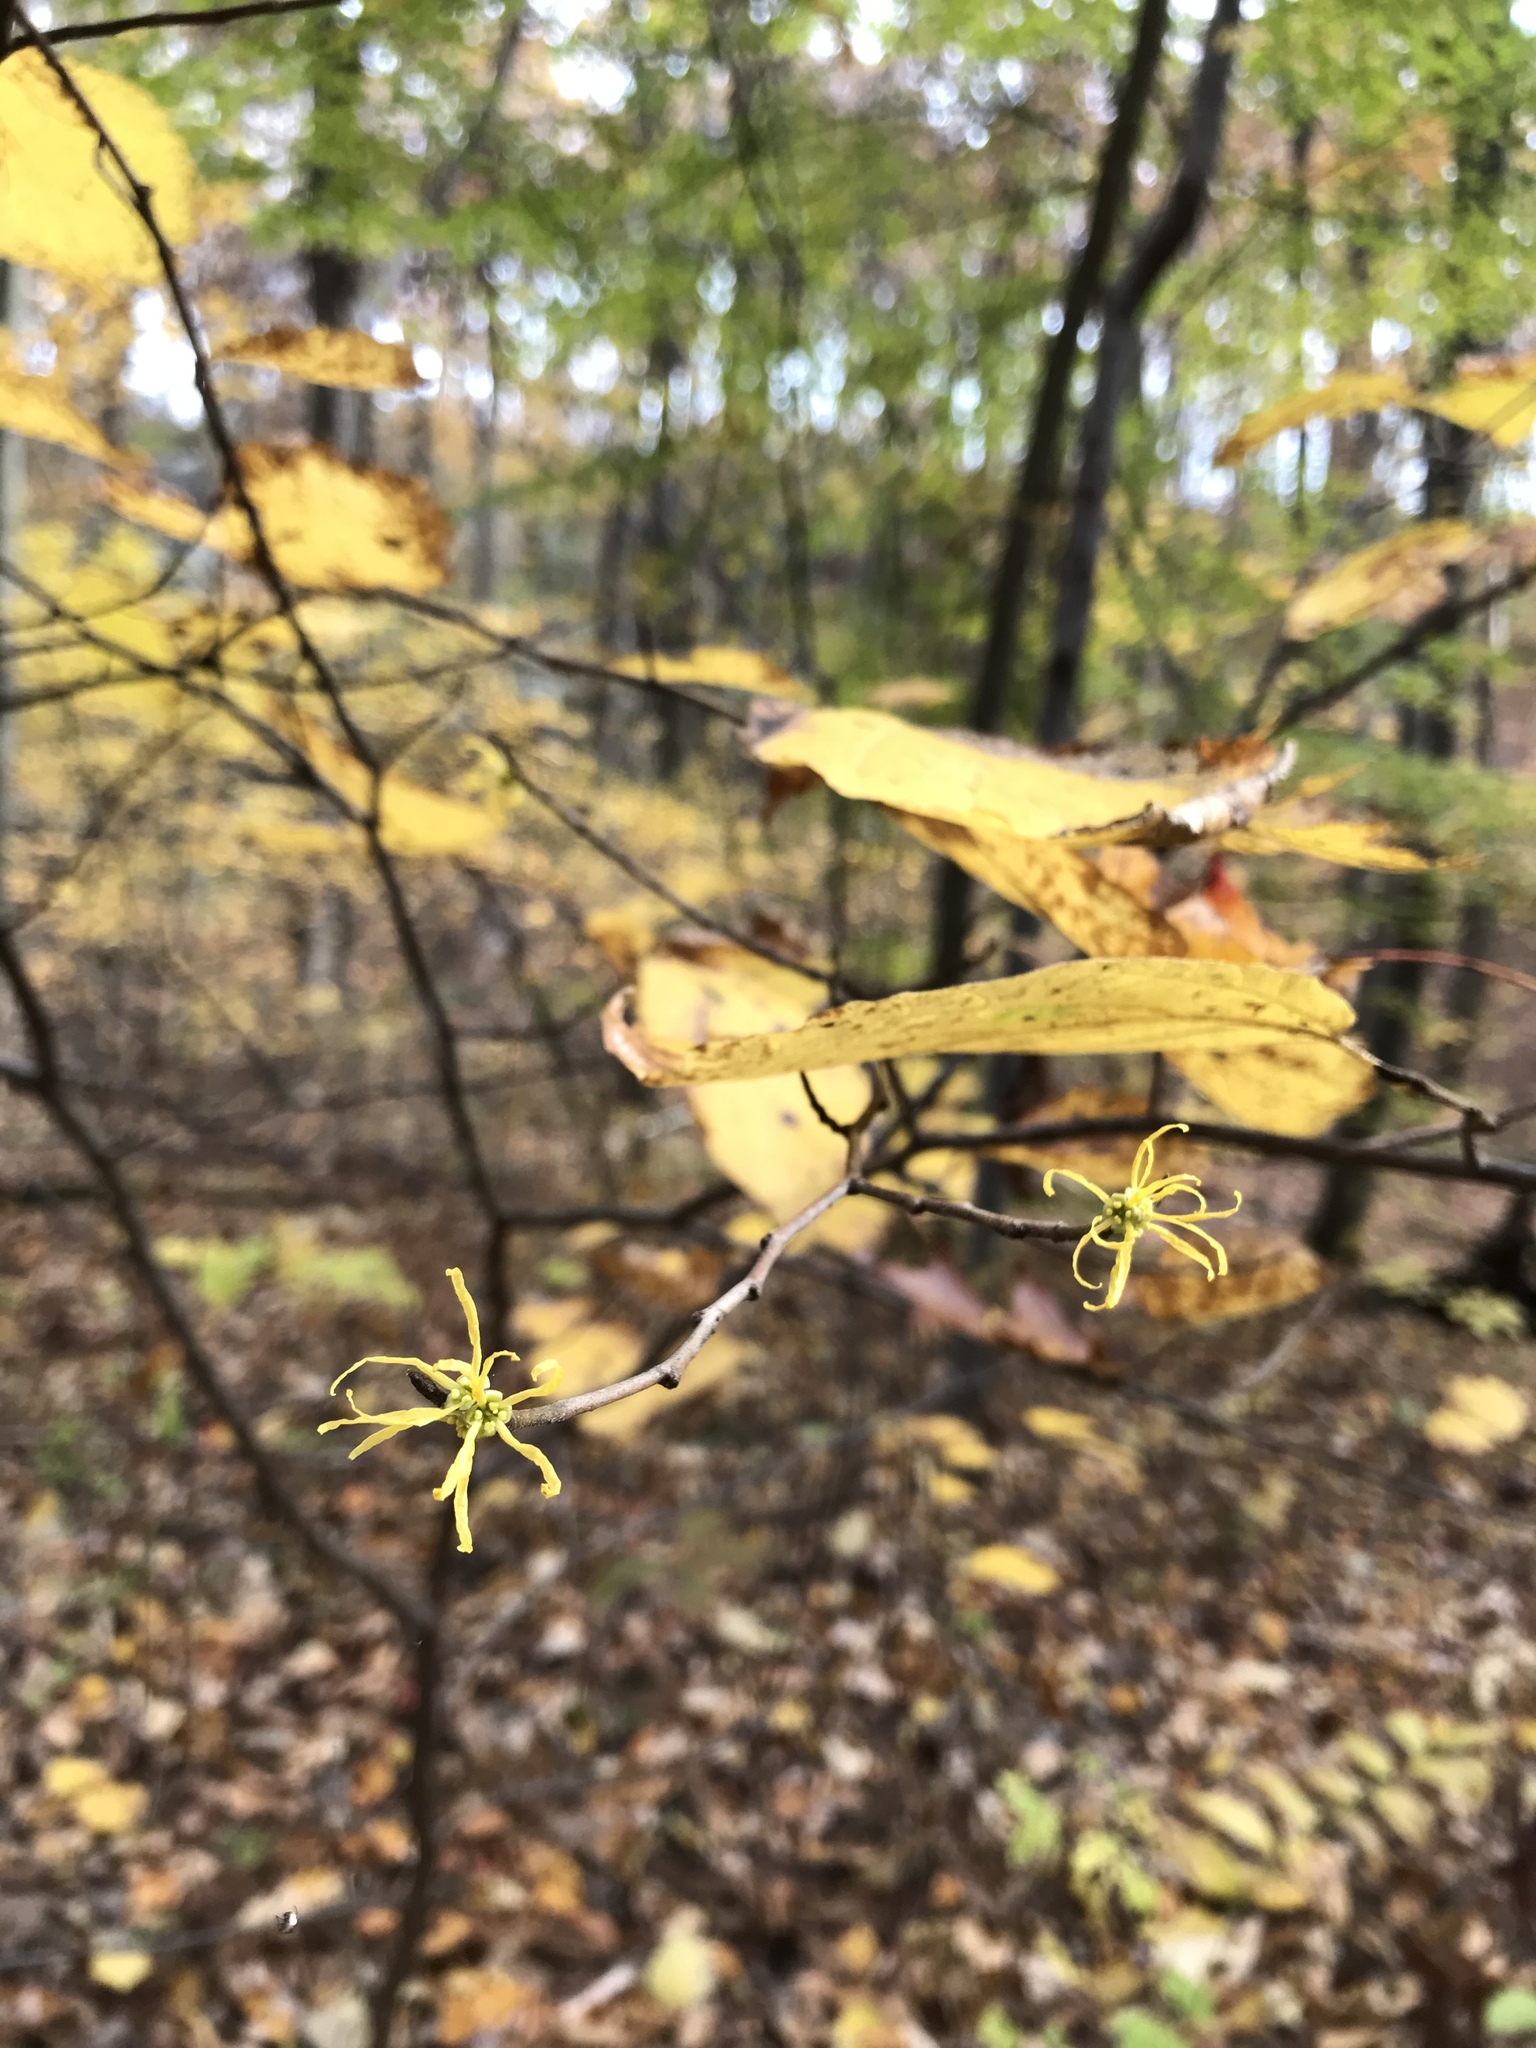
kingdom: Plantae
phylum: Tracheophyta
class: Magnoliopsida
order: Saxifragales
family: Hamamelidaceae
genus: Hamamelis
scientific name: Hamamelis virginiana
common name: Witch-hazel
